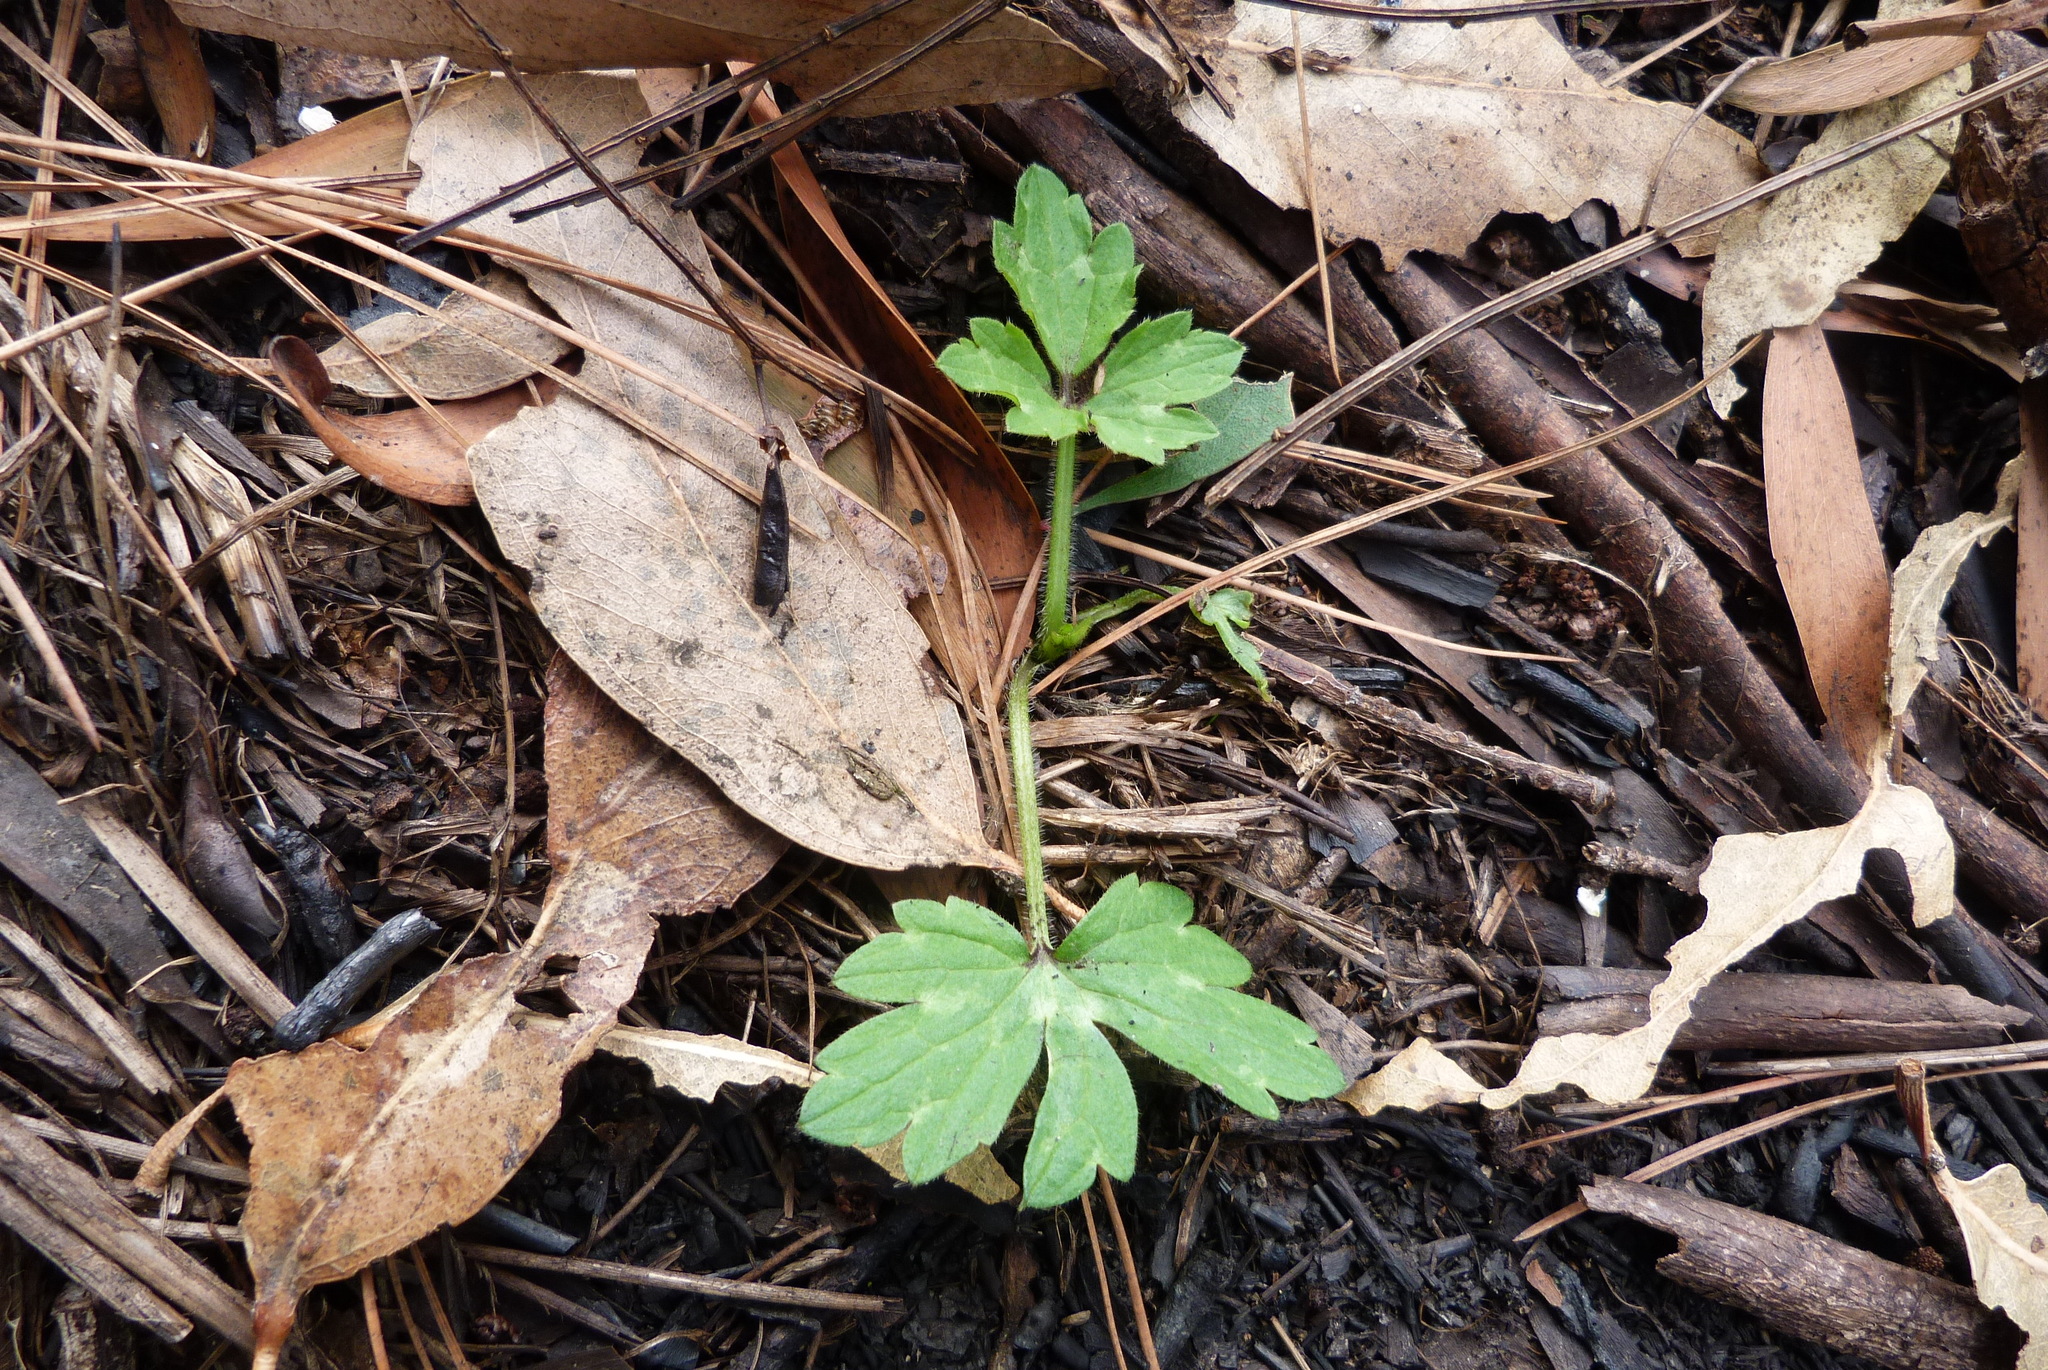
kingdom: Plantae
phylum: Tracheophyta
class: Magnoliopsida
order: Ranunculales
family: Ranunculaceae
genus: Ranunculus
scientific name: Ranunculus repens
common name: Creeping buttercup
